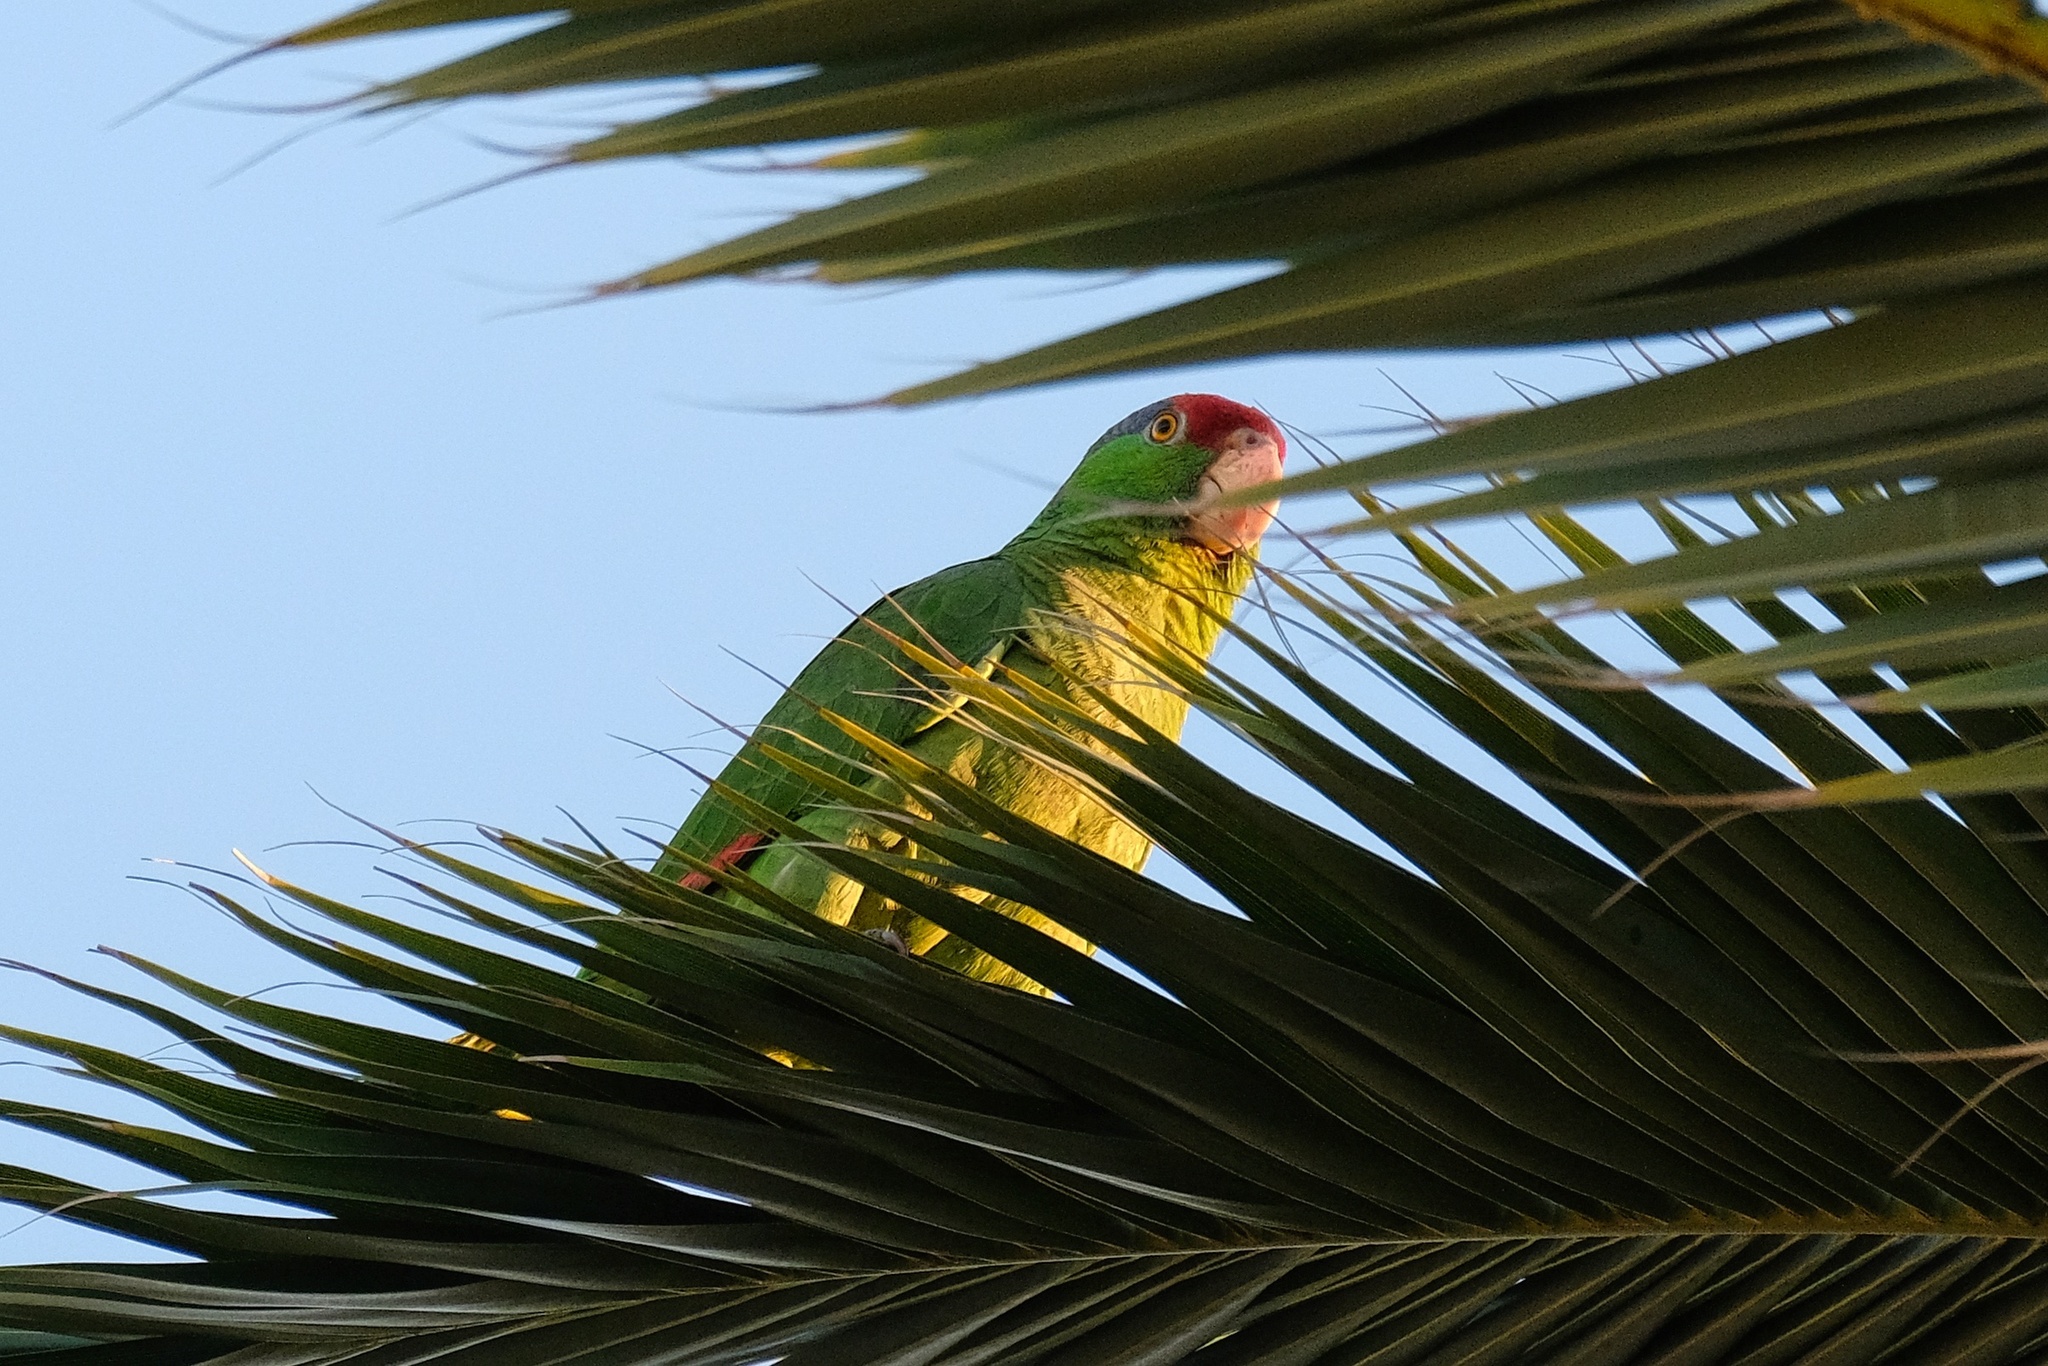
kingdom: Animalia
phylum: Chordata
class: Aves
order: Psittaciformes
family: Psittacidae
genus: Amazona
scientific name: Amazona viridigenalis
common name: Red-crowned amazon
